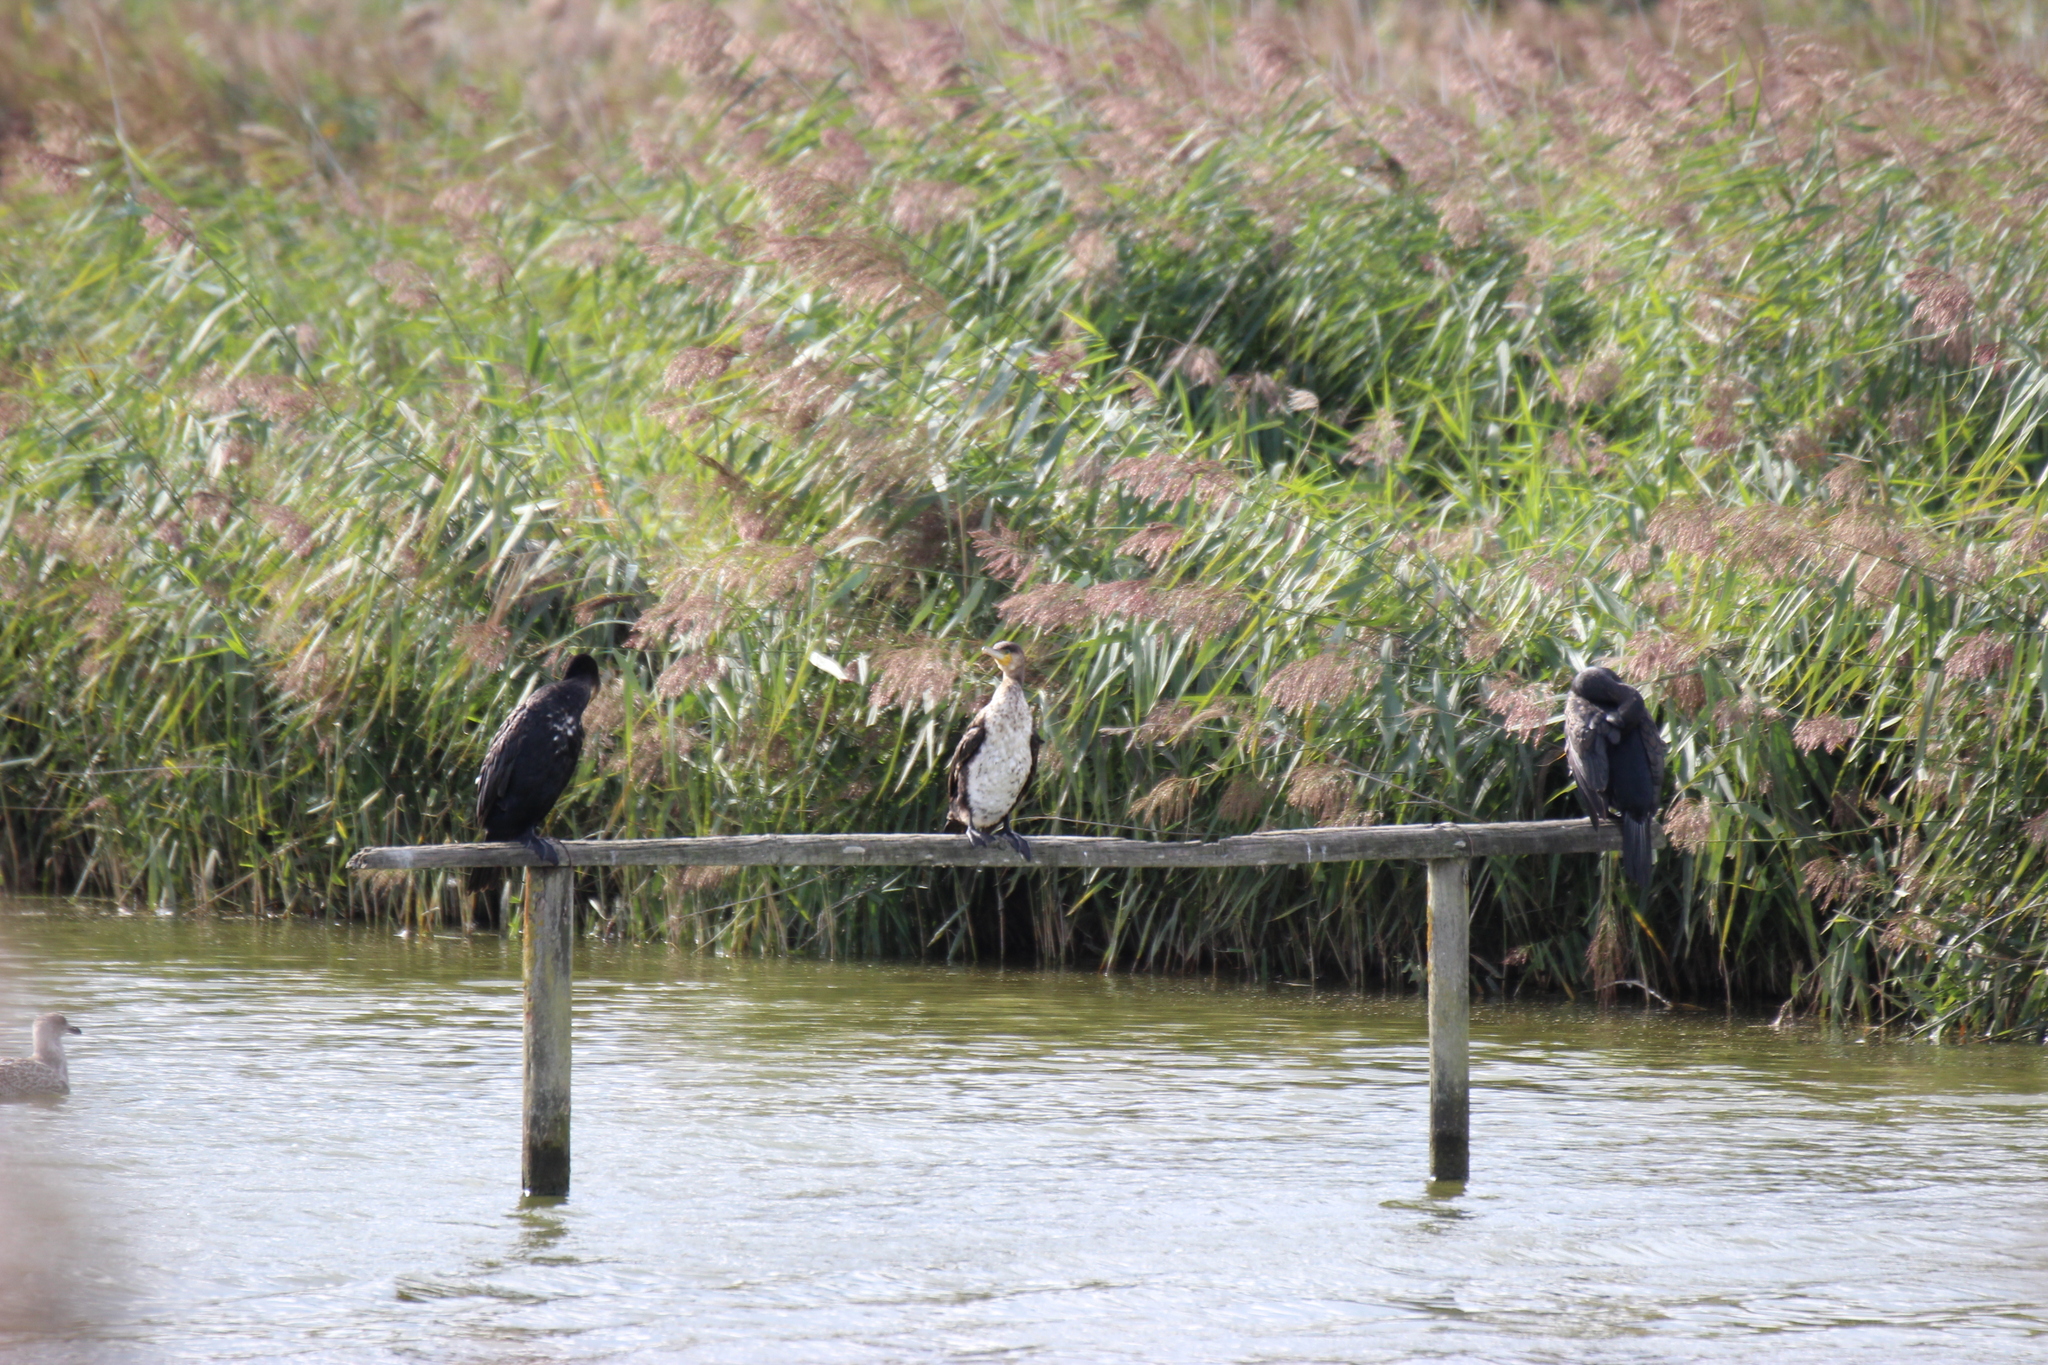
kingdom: Animalia
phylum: Chordata
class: Aves
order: Suliformes
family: Phalacrocoracidae
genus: Phalacrocorax
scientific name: Phalacrocorax carbo
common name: Great cormorant
